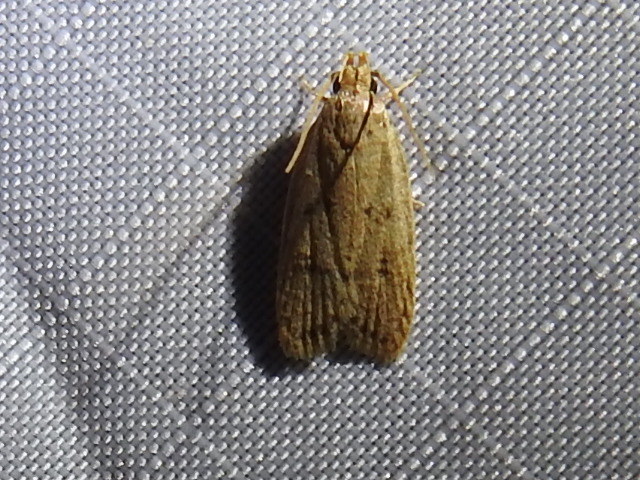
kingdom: Animalia
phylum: Arthropoda
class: Insecta
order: Lepidoptera
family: Autostichidae
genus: Autosticha
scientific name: Autosticha kyotensis
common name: Kyoto moth
